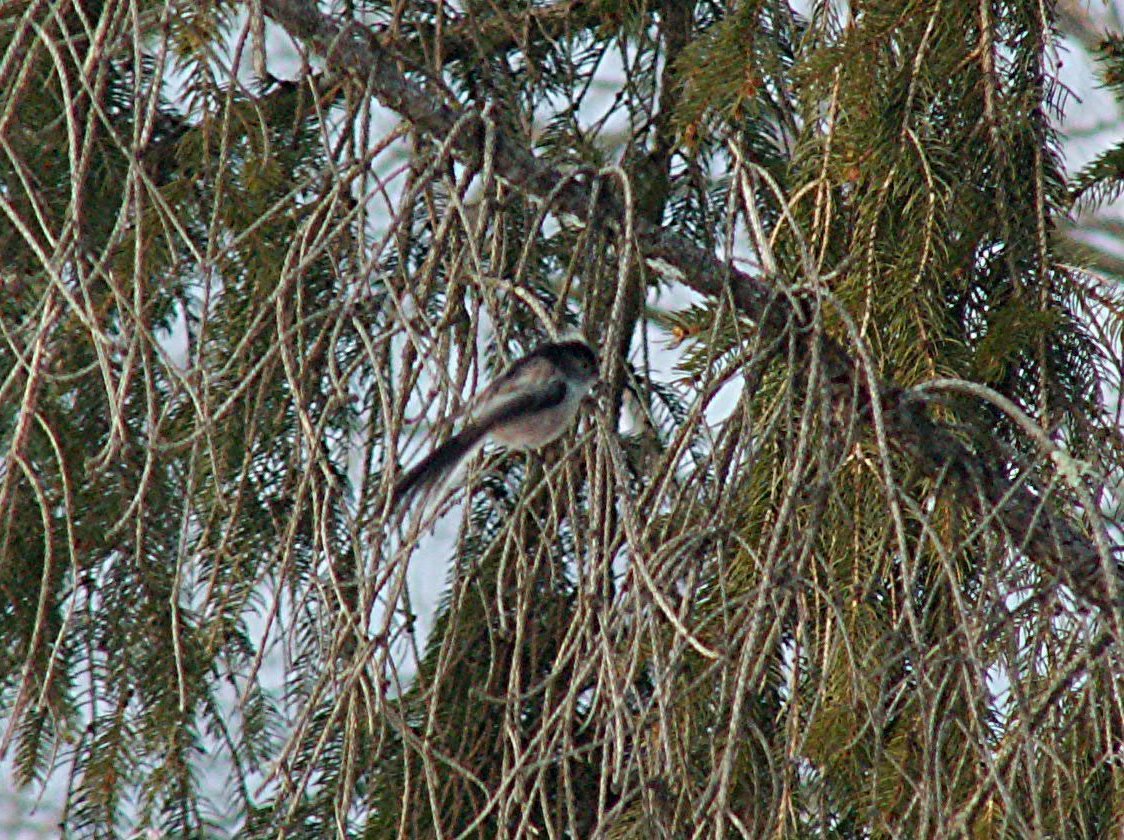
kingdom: Animalia
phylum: Chordata
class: Aves
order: Passeriformes
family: Aegithalidae
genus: Aegithalos
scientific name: Aegithalos caudatus
